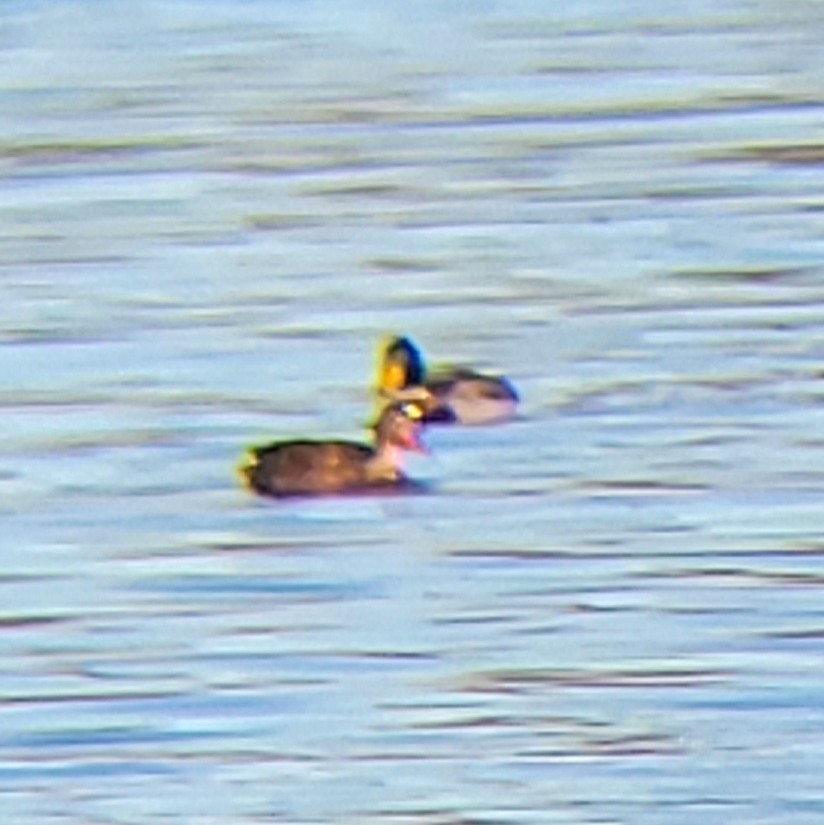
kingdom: Animalia
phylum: Chordata
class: Aves
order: Anseriformes
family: Anatidae
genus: Anas
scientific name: Anas platyrhynchos
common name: Mallard
